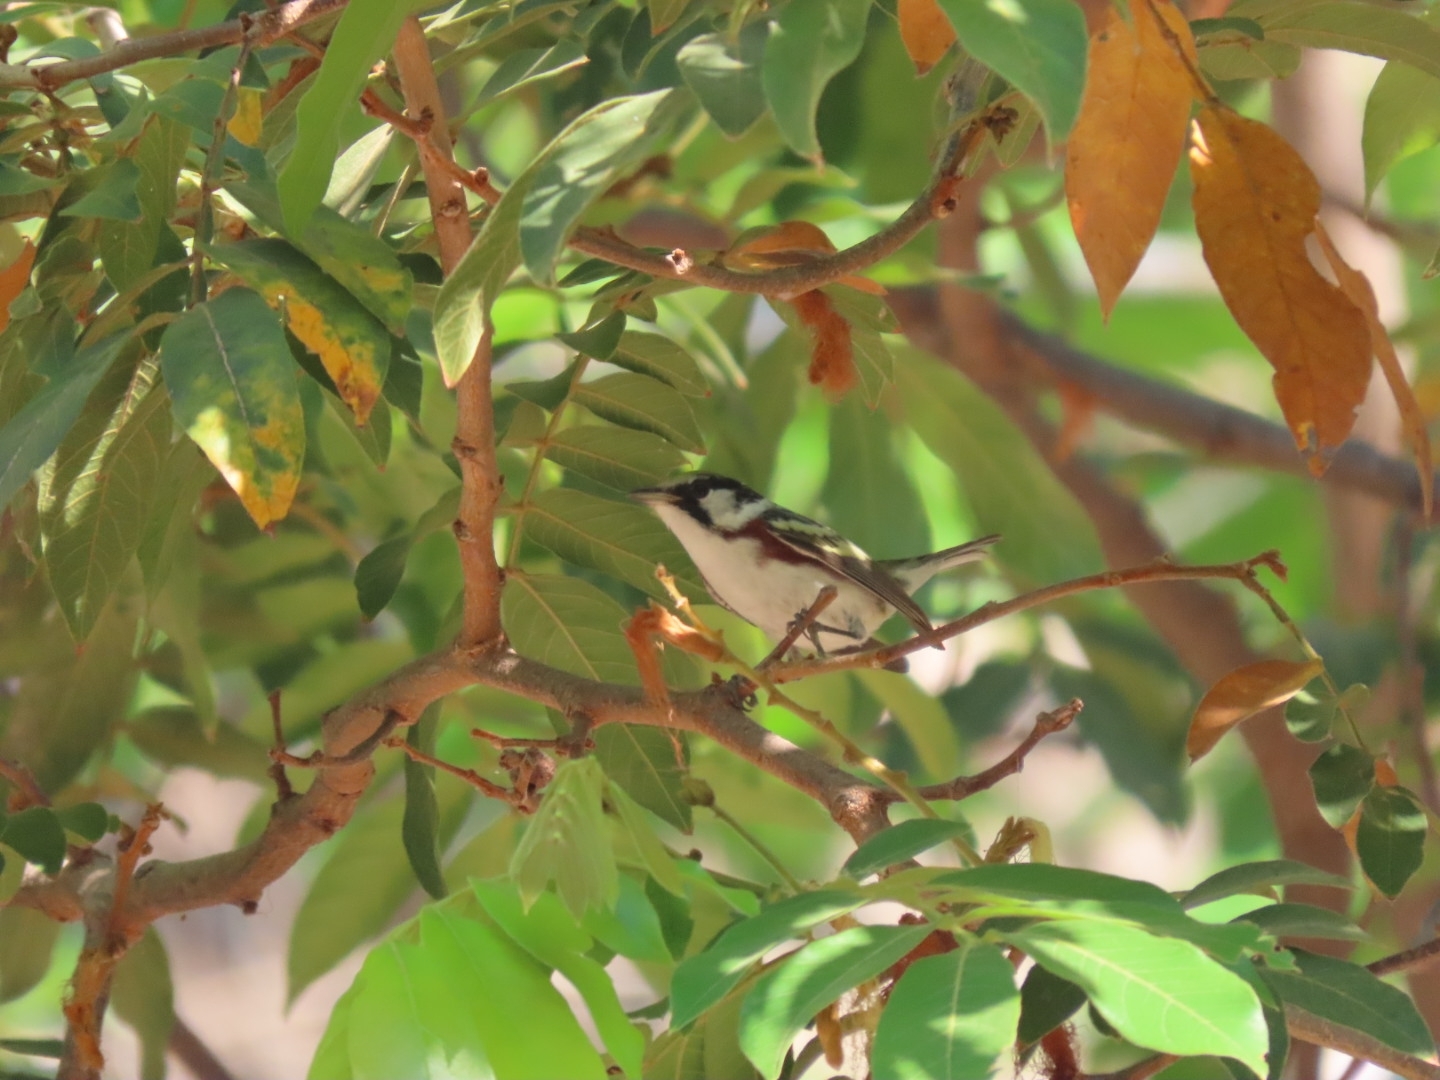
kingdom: Animalia
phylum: Chordata
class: Aves
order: Passeriformes
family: Parulidae
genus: Setophaga
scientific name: Setophaga pensylvanica
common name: Chestnut-sided warbler
